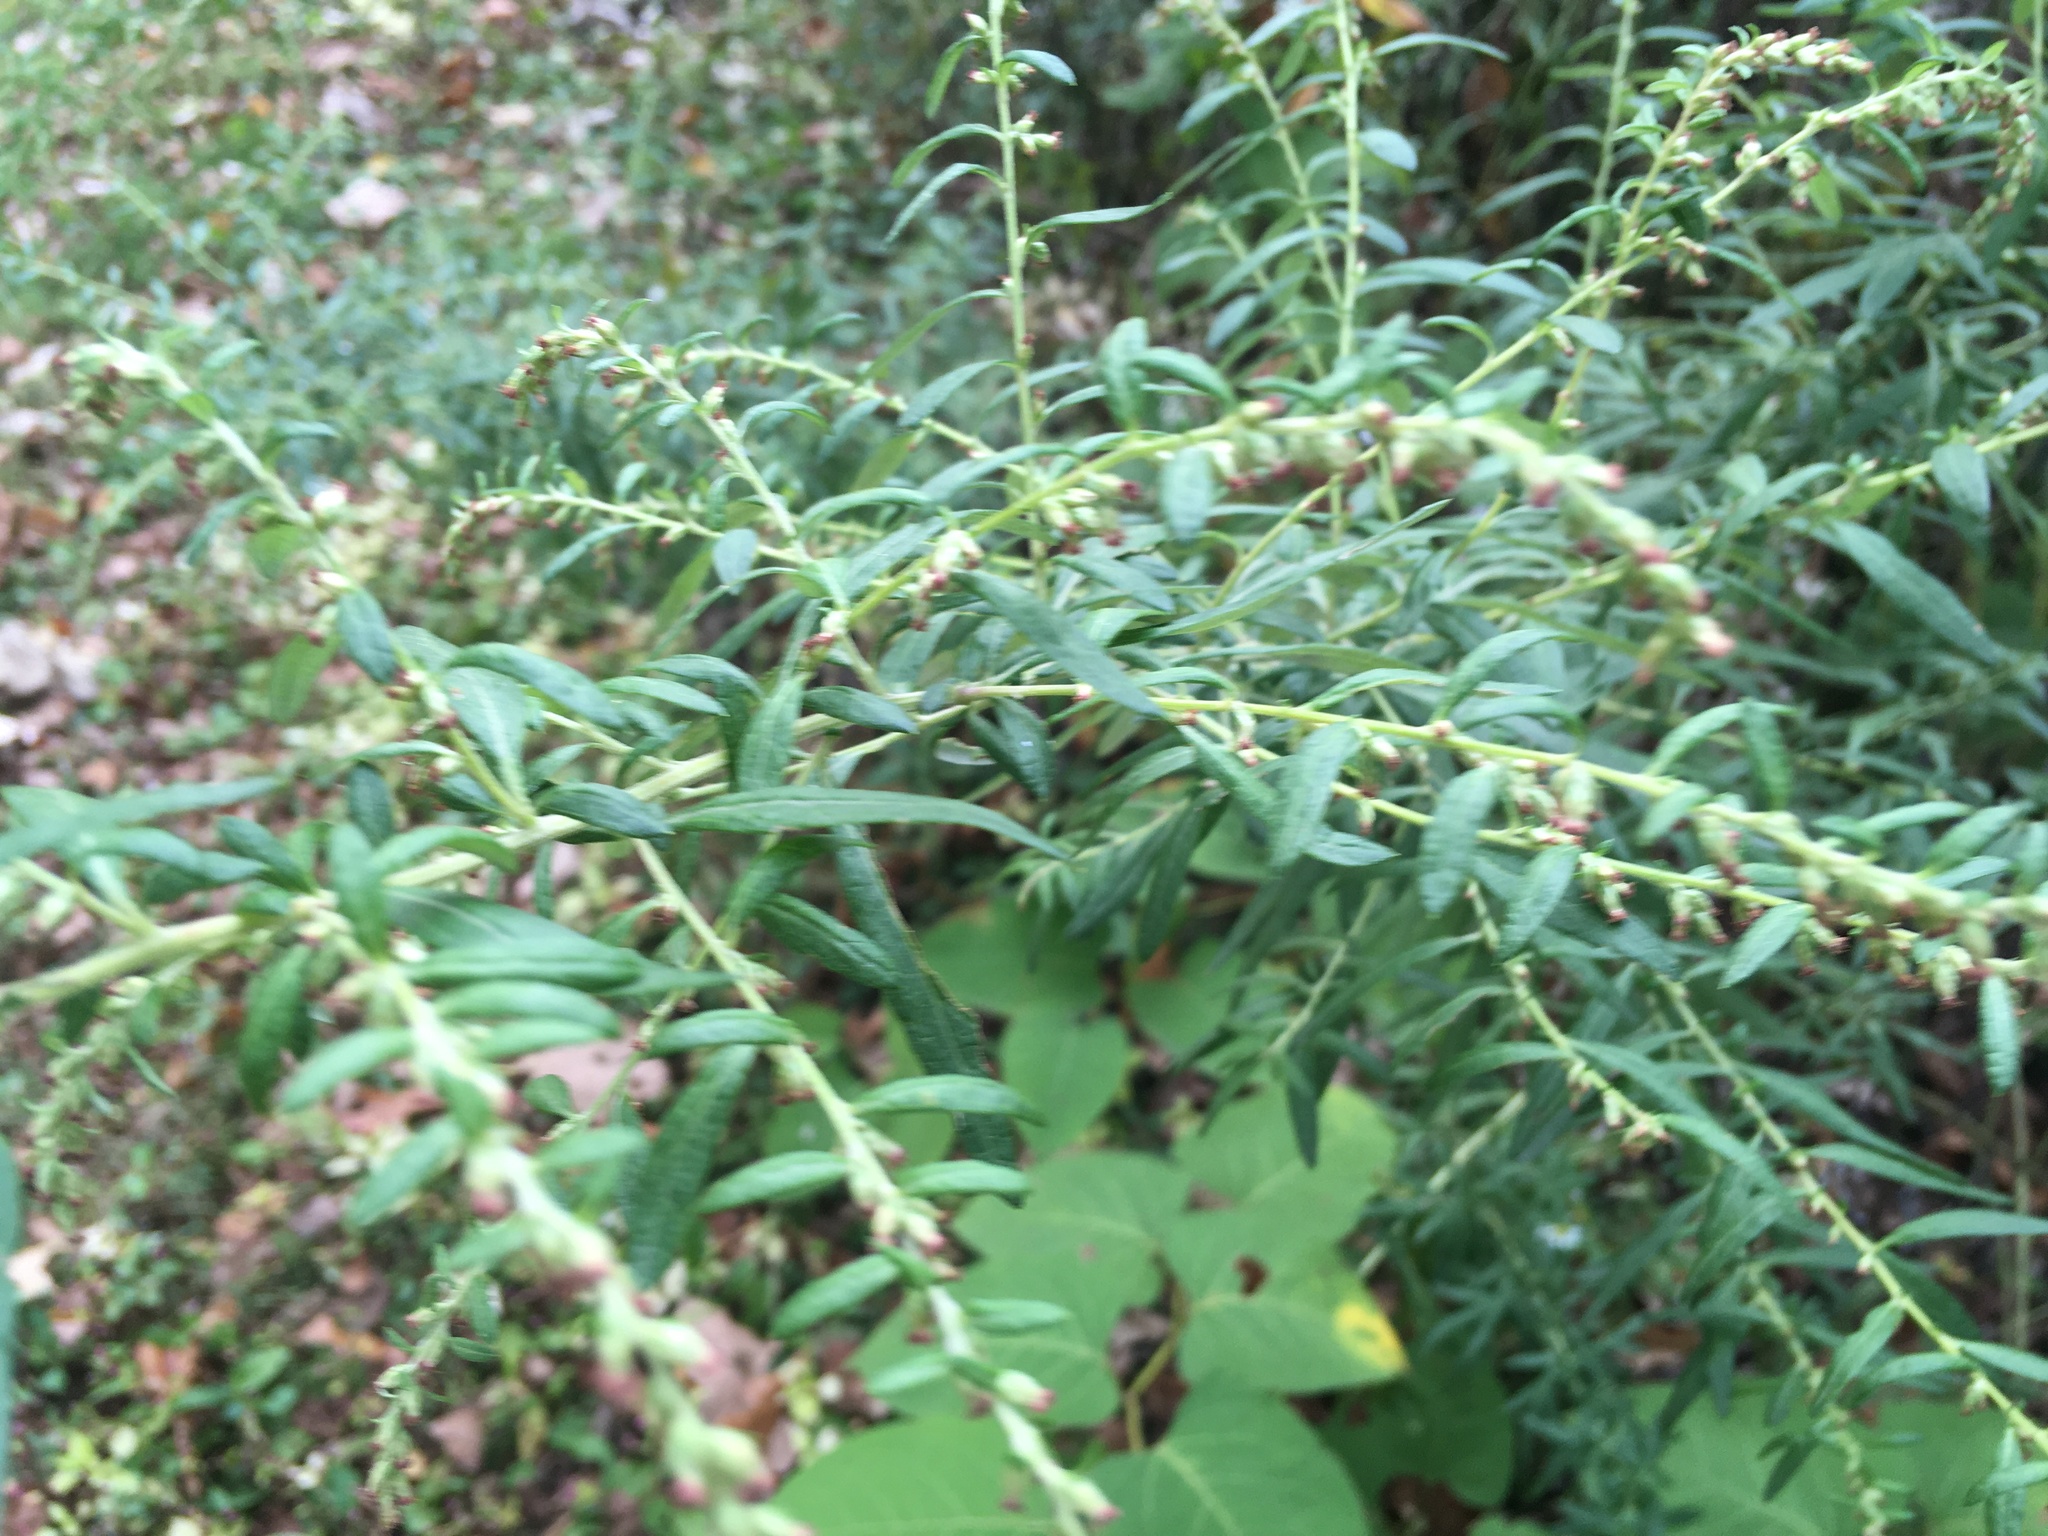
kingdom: Plantae
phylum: Tracheophyta
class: Magnoliopsida
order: Asterales
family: Asteraceae
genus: Artemisia
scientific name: Artemisia vulgaris
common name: Mugwort
